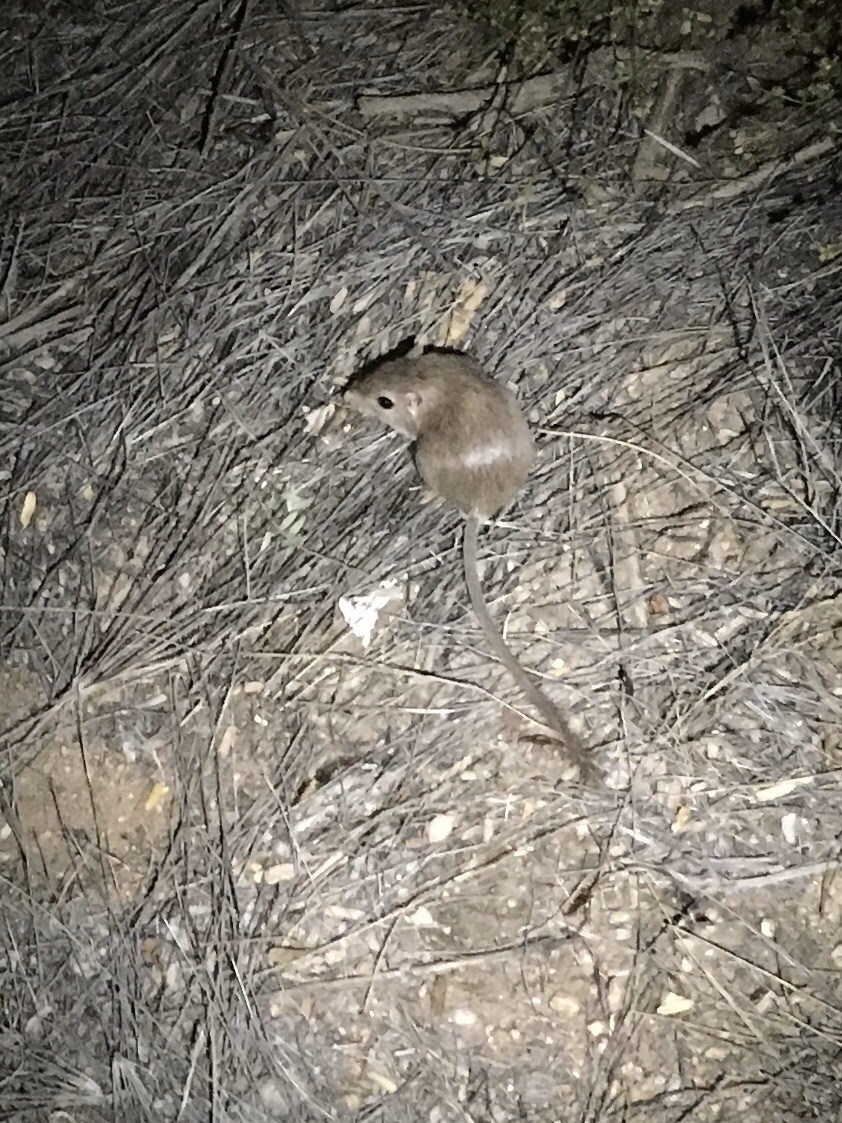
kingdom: Animalia
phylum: Chordata
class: Mammalia
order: Rodentia
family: Heteromyidae
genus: Chaetodipus
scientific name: Chaetodipus penicillatus
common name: Desert pocket mouse
